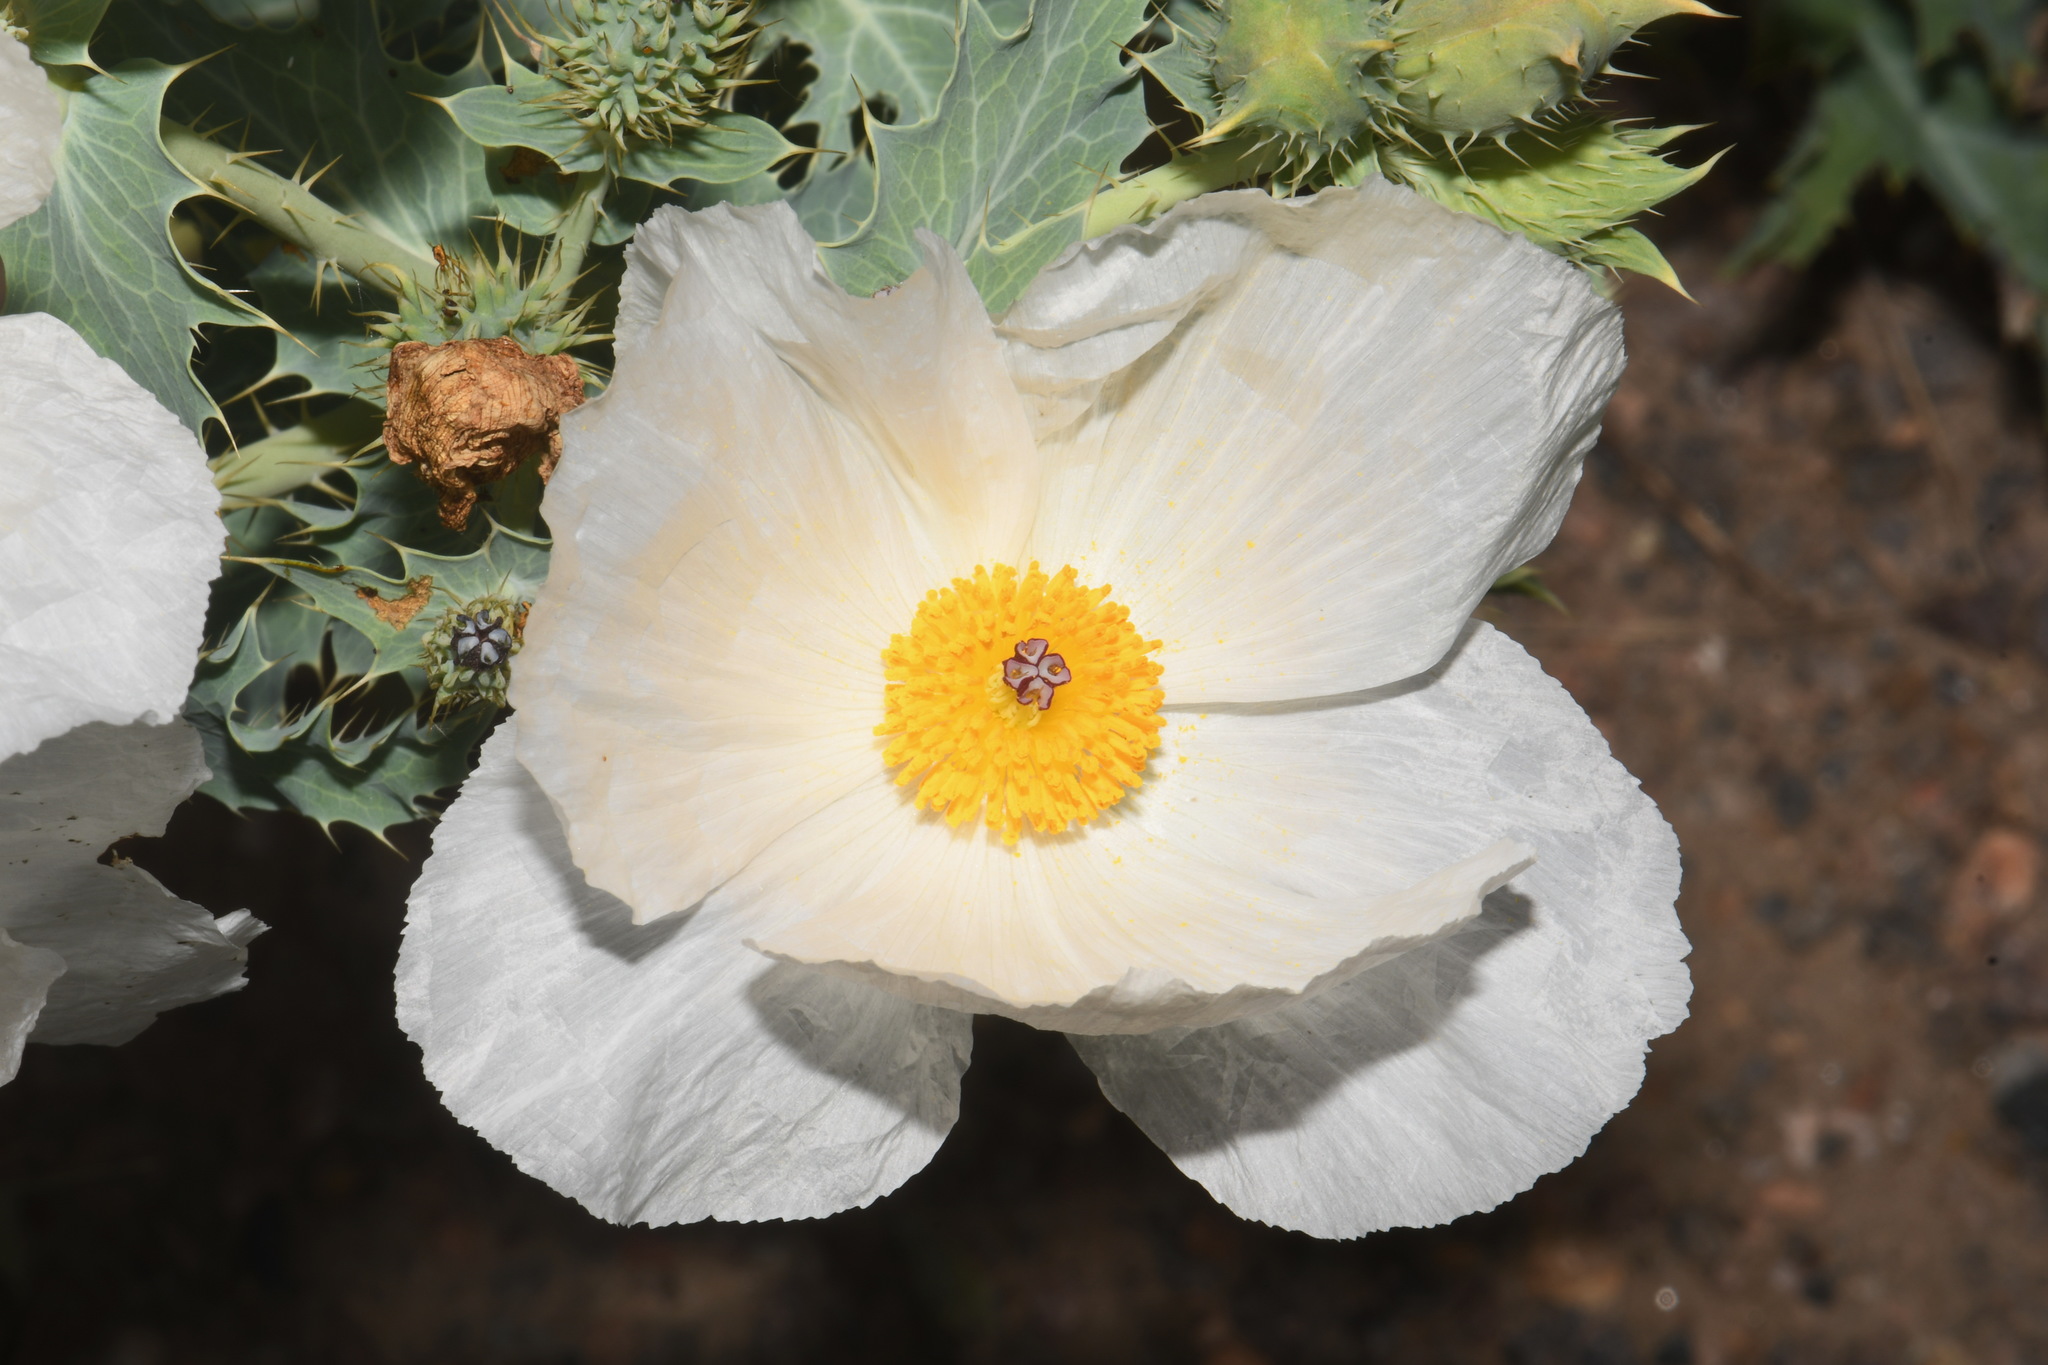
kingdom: Plantae
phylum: Tracheophyta
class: Magnoliopsida
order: Ranunculales
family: Papaveraceae
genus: Argemone
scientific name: Argemone polyanthemos
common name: Plains prickly-poppy
